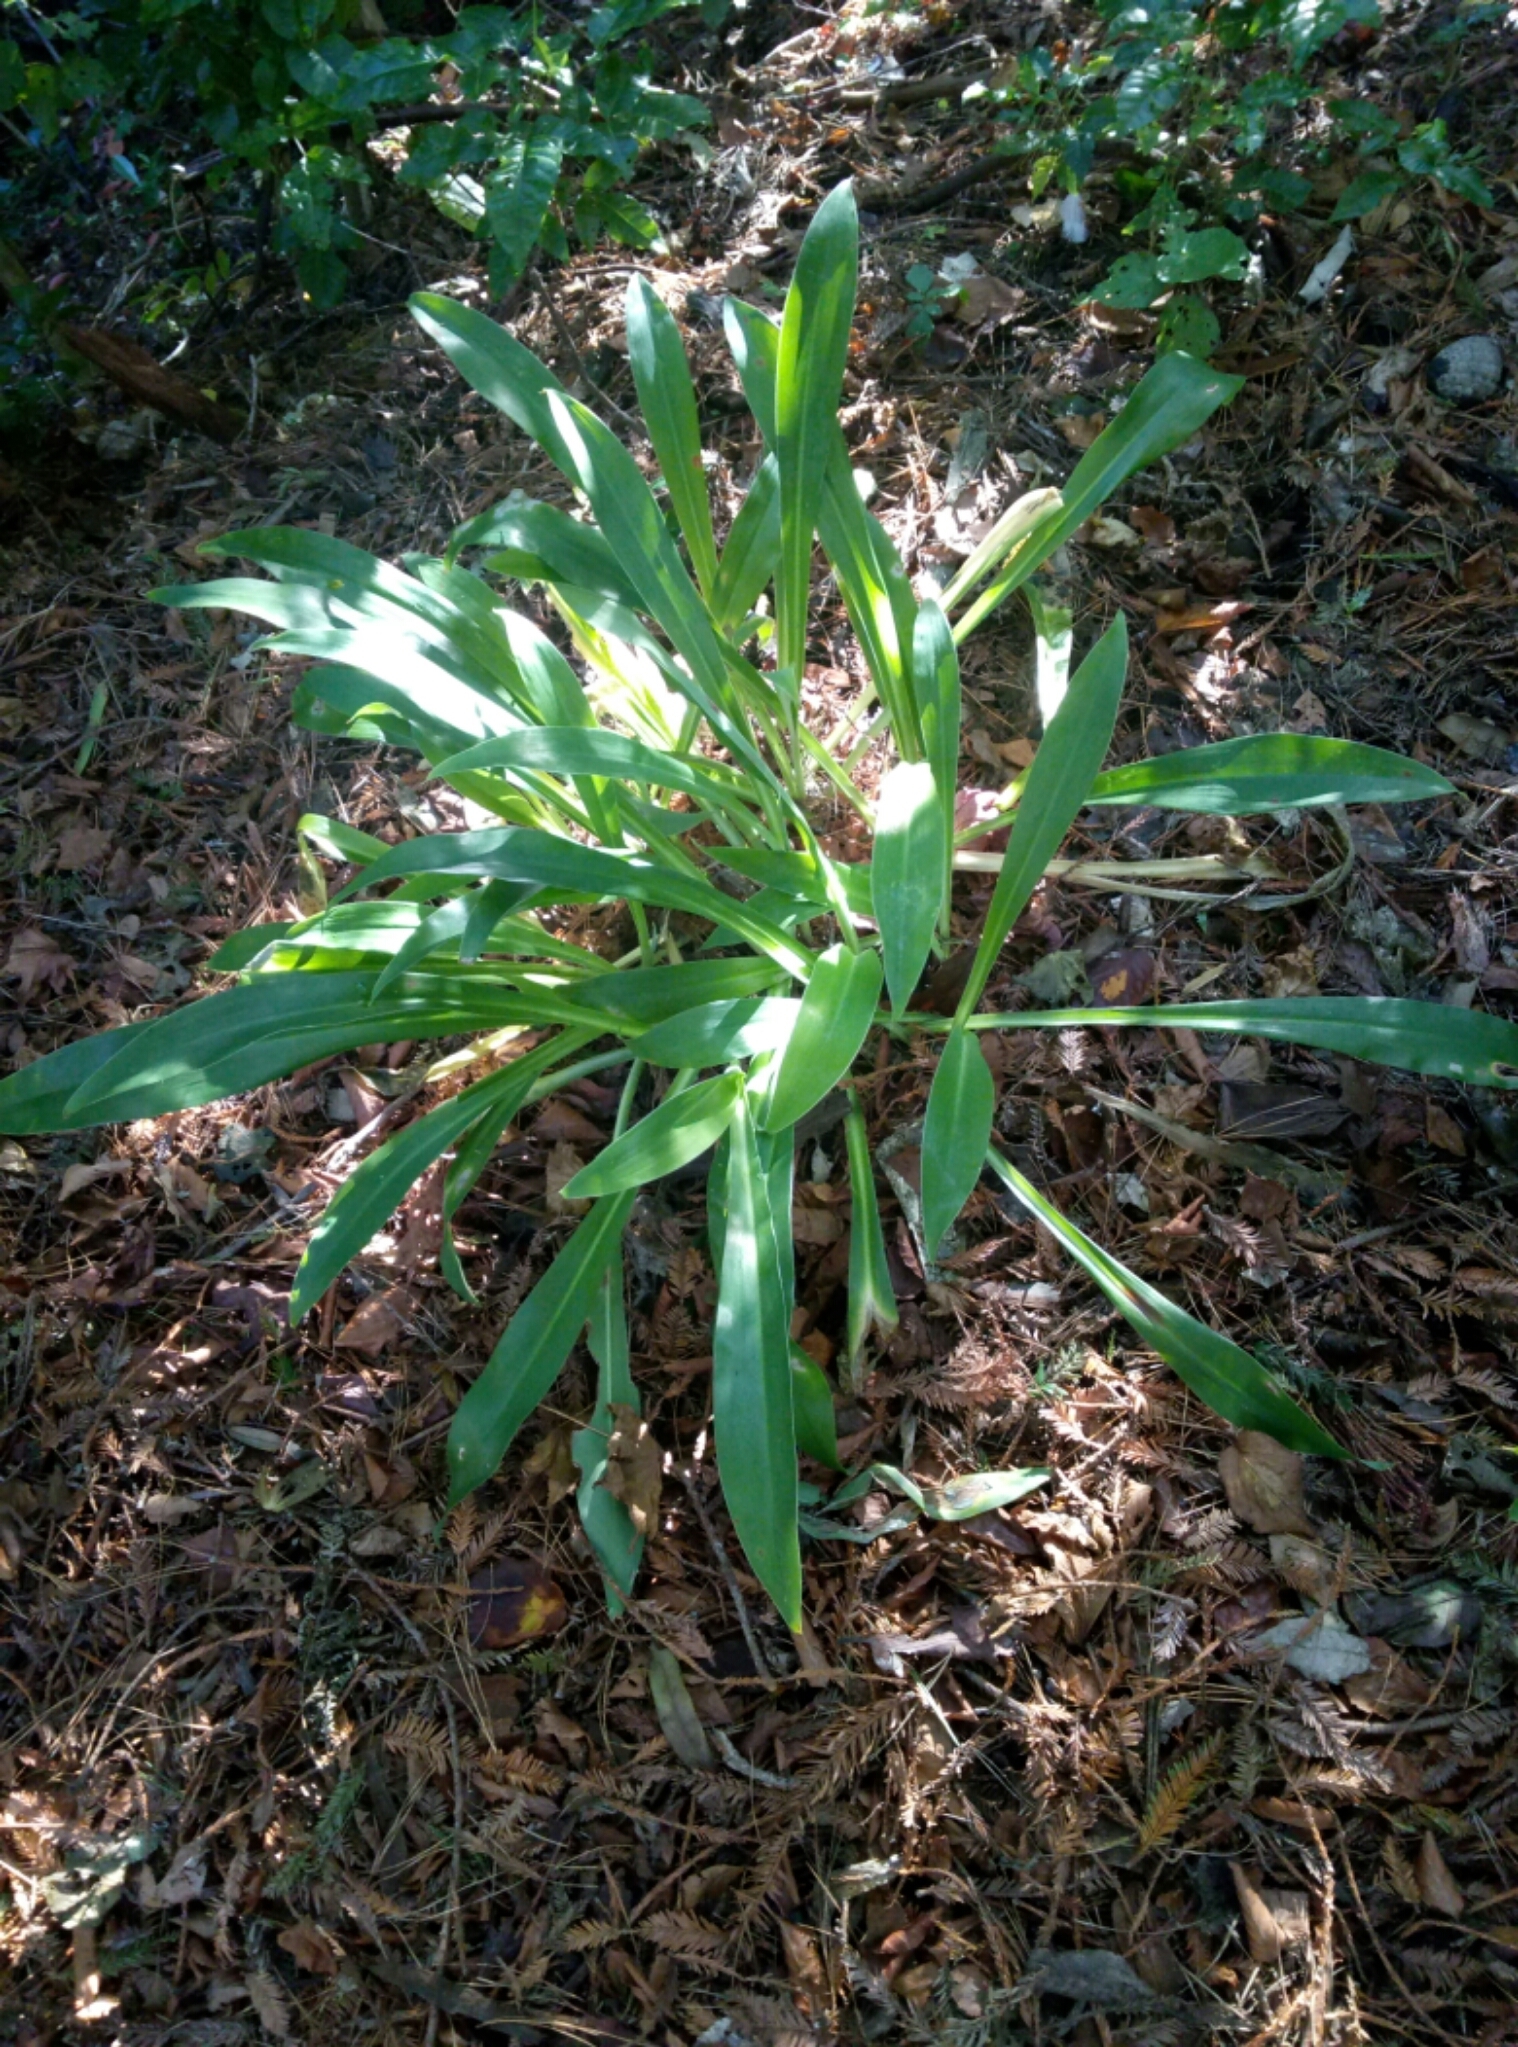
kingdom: Plantae
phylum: Tracheophyta
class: Liliopsida
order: Asparagales
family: Asparagaceae
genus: Arthropodium
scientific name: Arthropodium cirratum
